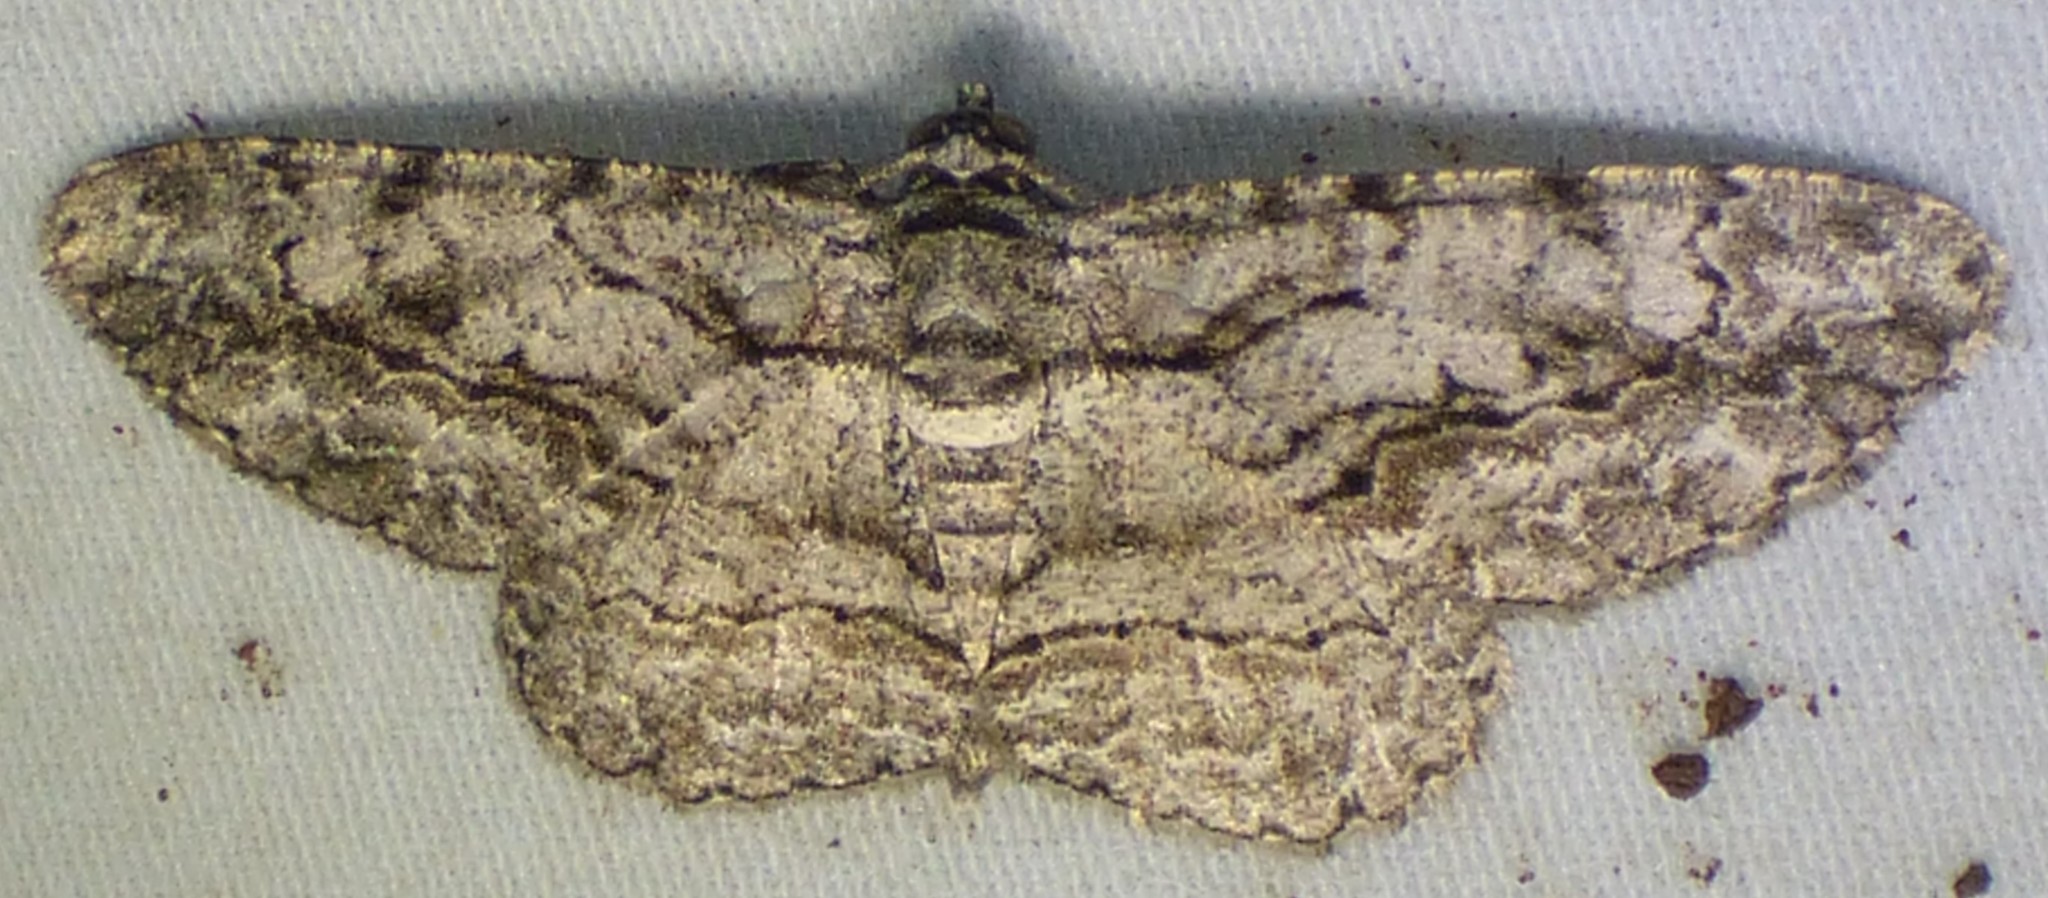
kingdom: Animalia
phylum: Arthropoda
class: Insecta
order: Lepidoptera
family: Geometridae
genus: Anavitrinella
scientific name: Anavitrinella pampinaria
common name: Common gray
